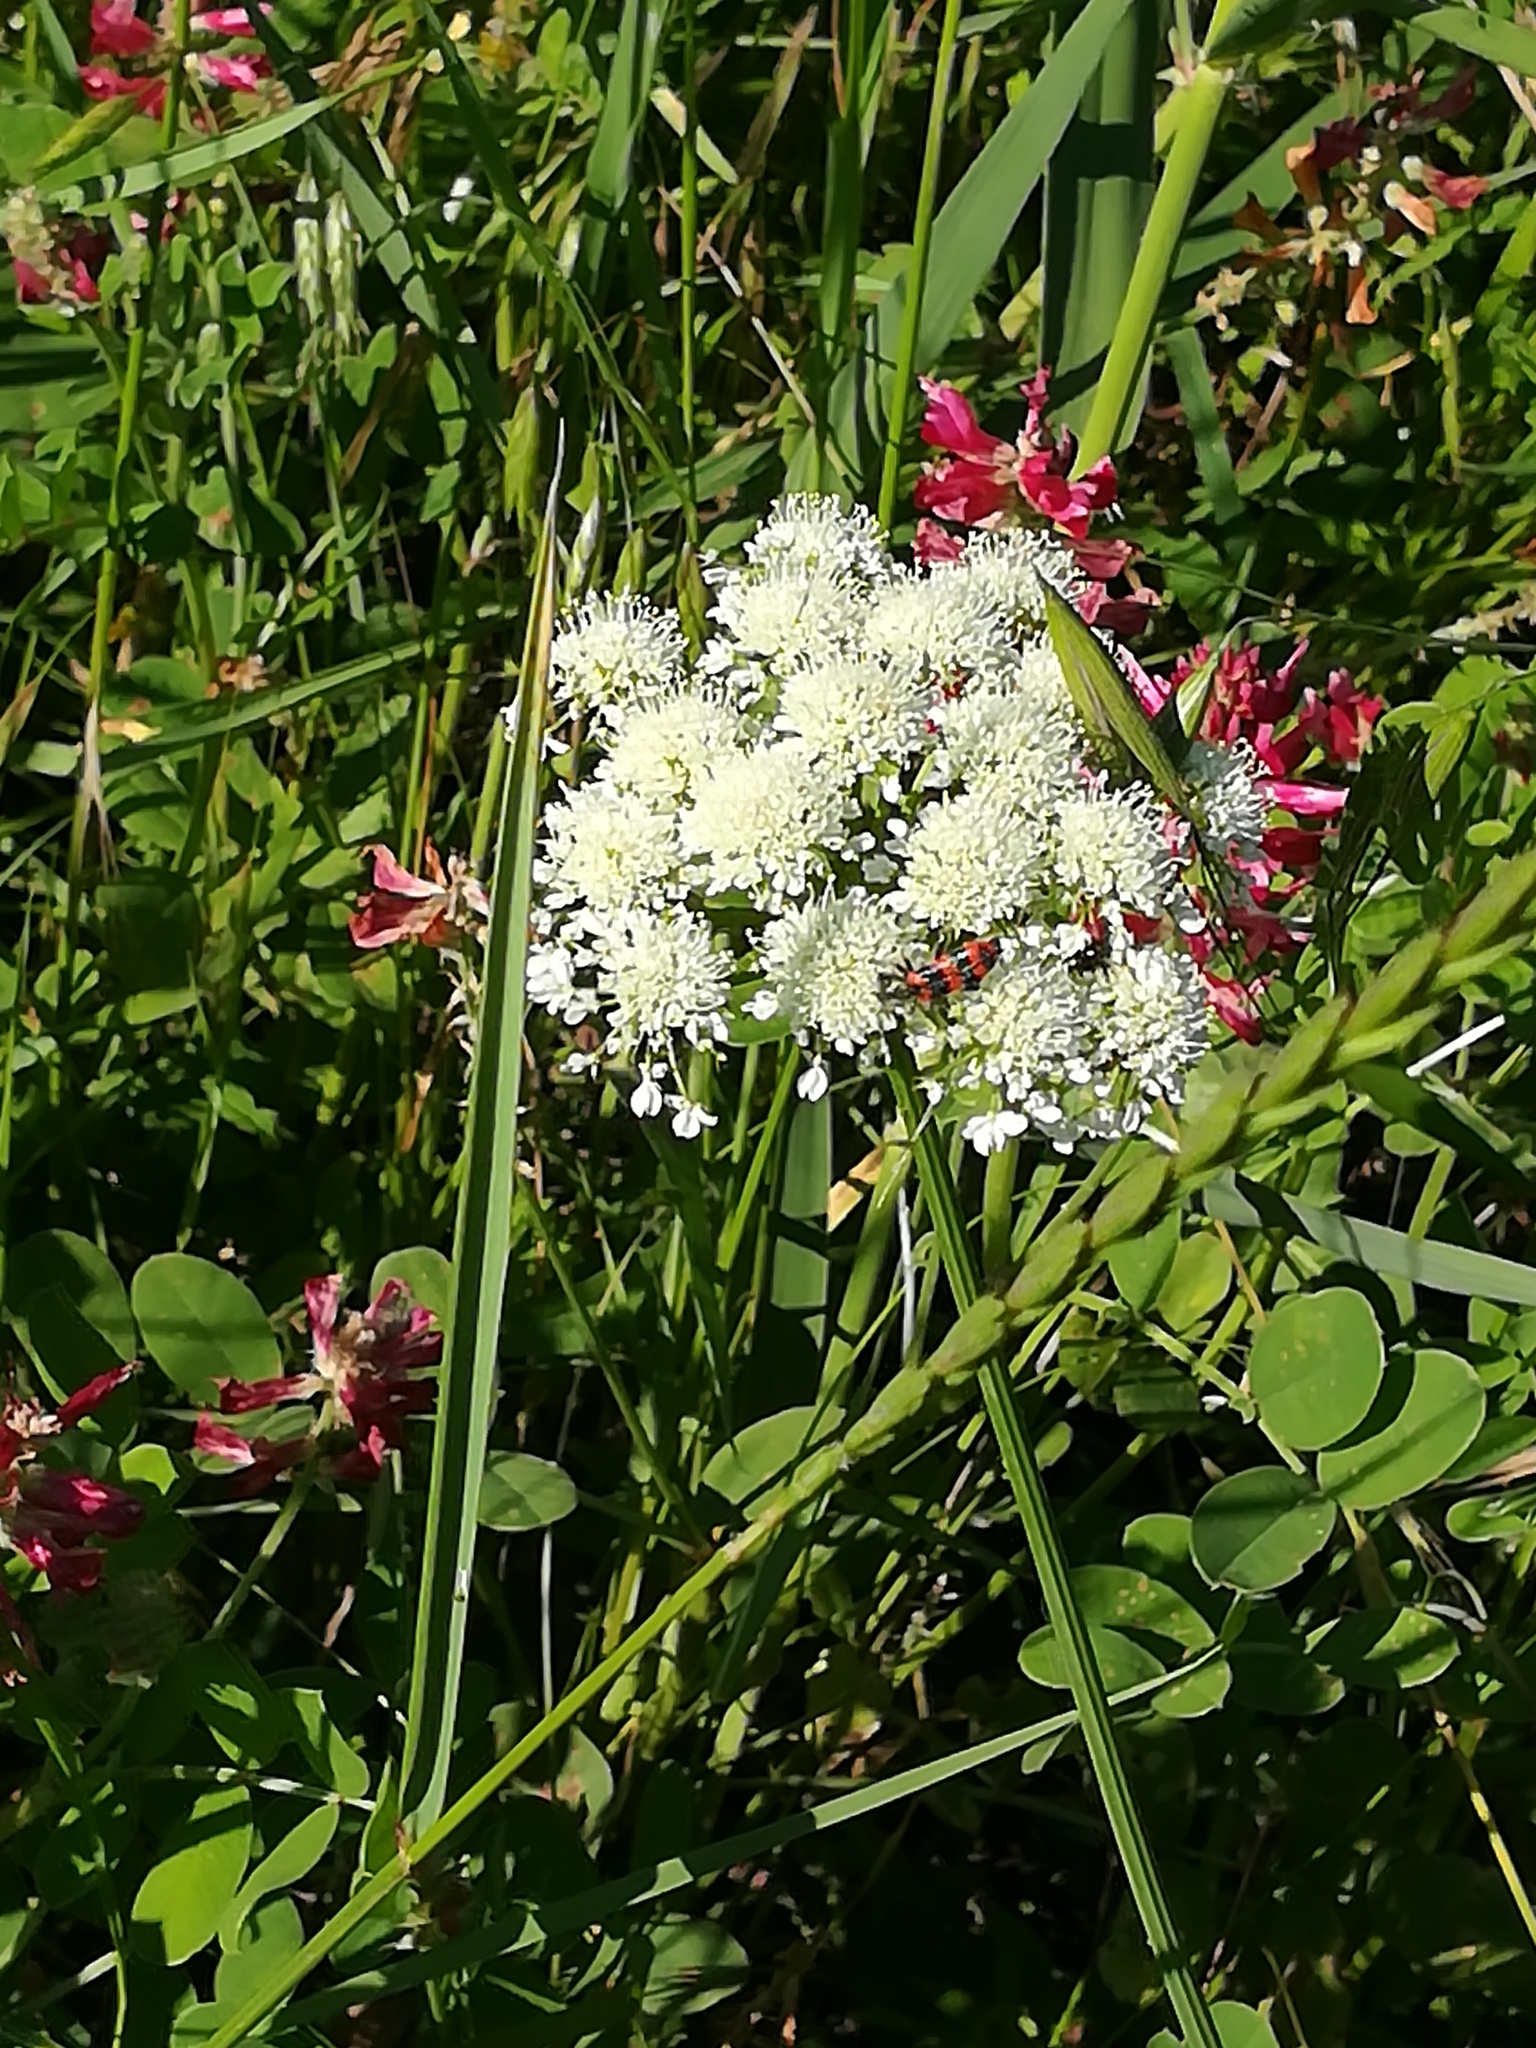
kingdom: Animalia
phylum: Arthropoda
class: Insecta
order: Coleoptera
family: Cleridae
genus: Trichodes
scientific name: Trichodes alvearius
